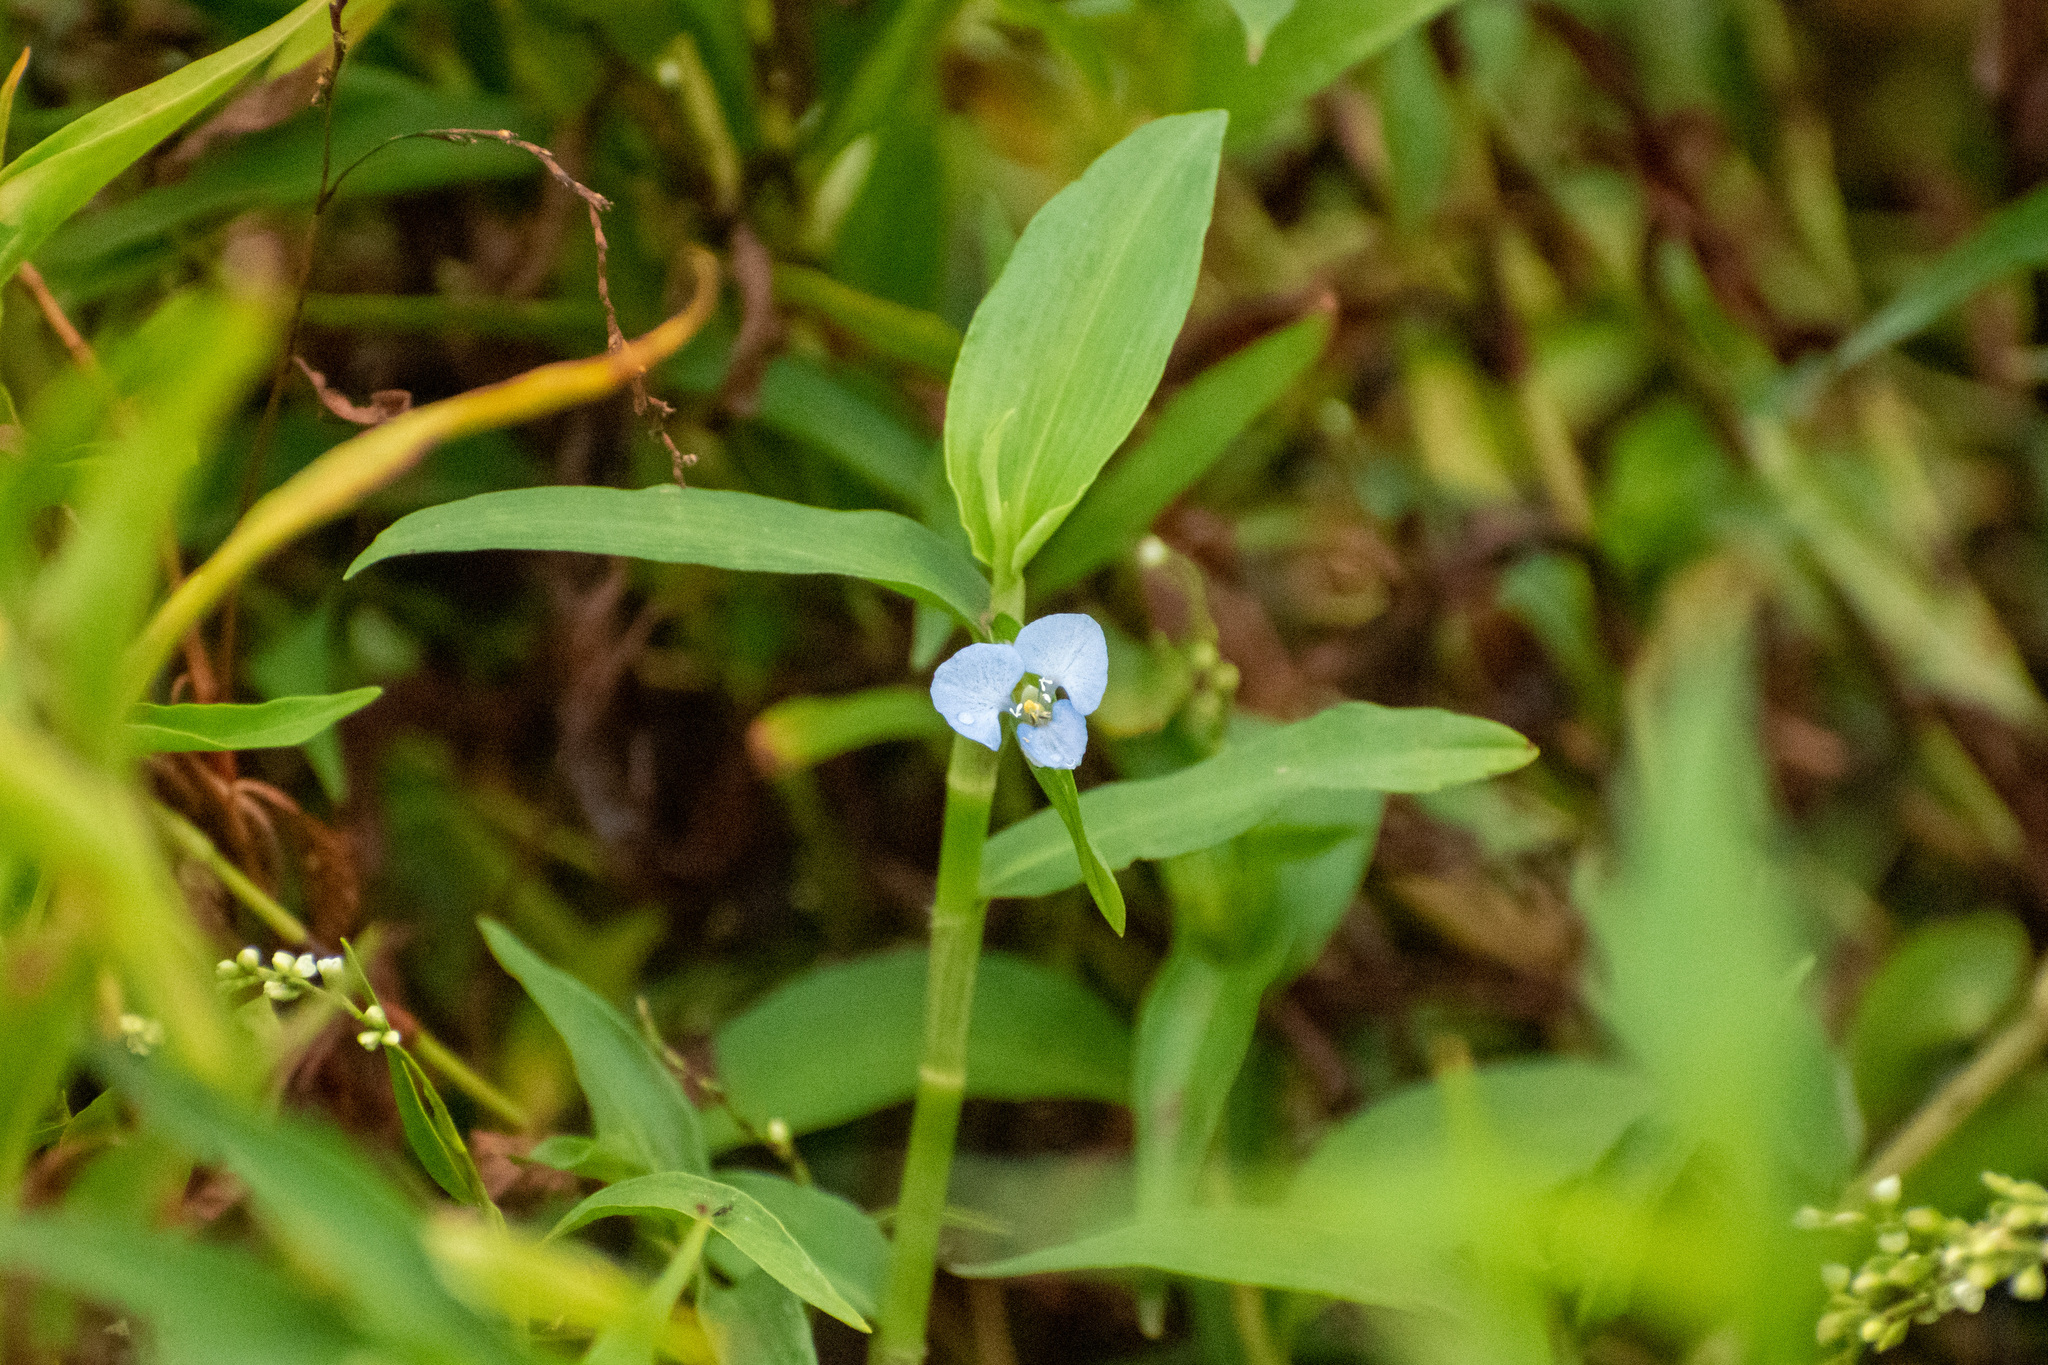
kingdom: Plantae
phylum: Tracheophyta
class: Liliopsida
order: Commelinales
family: Commelinaceae
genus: Commelina
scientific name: Commelina diffusa
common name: Climbing dayflower
